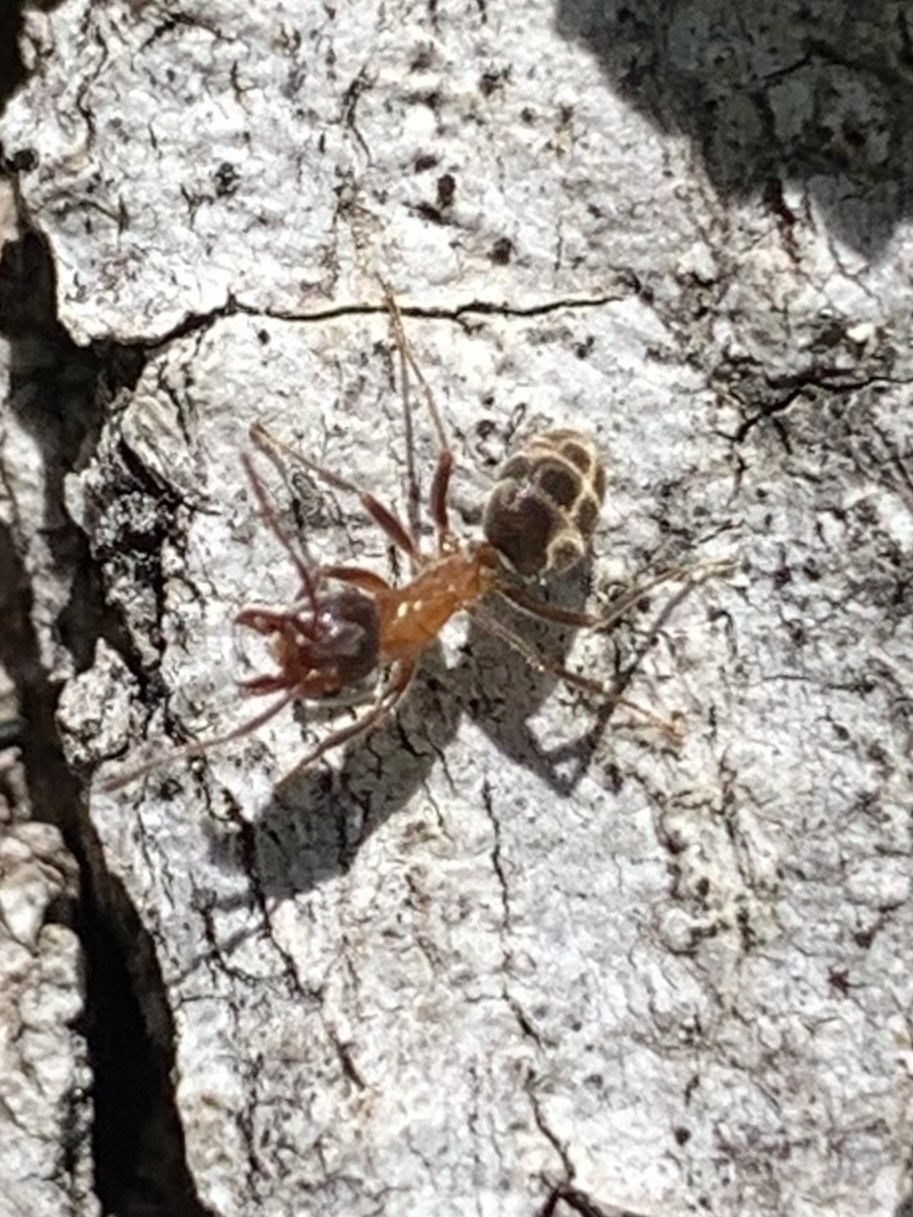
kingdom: Animalia
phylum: Arthropoda
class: Insecta
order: Hymenoptera
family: Formicidae
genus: Liometopum
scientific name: Liometopum occidentale
